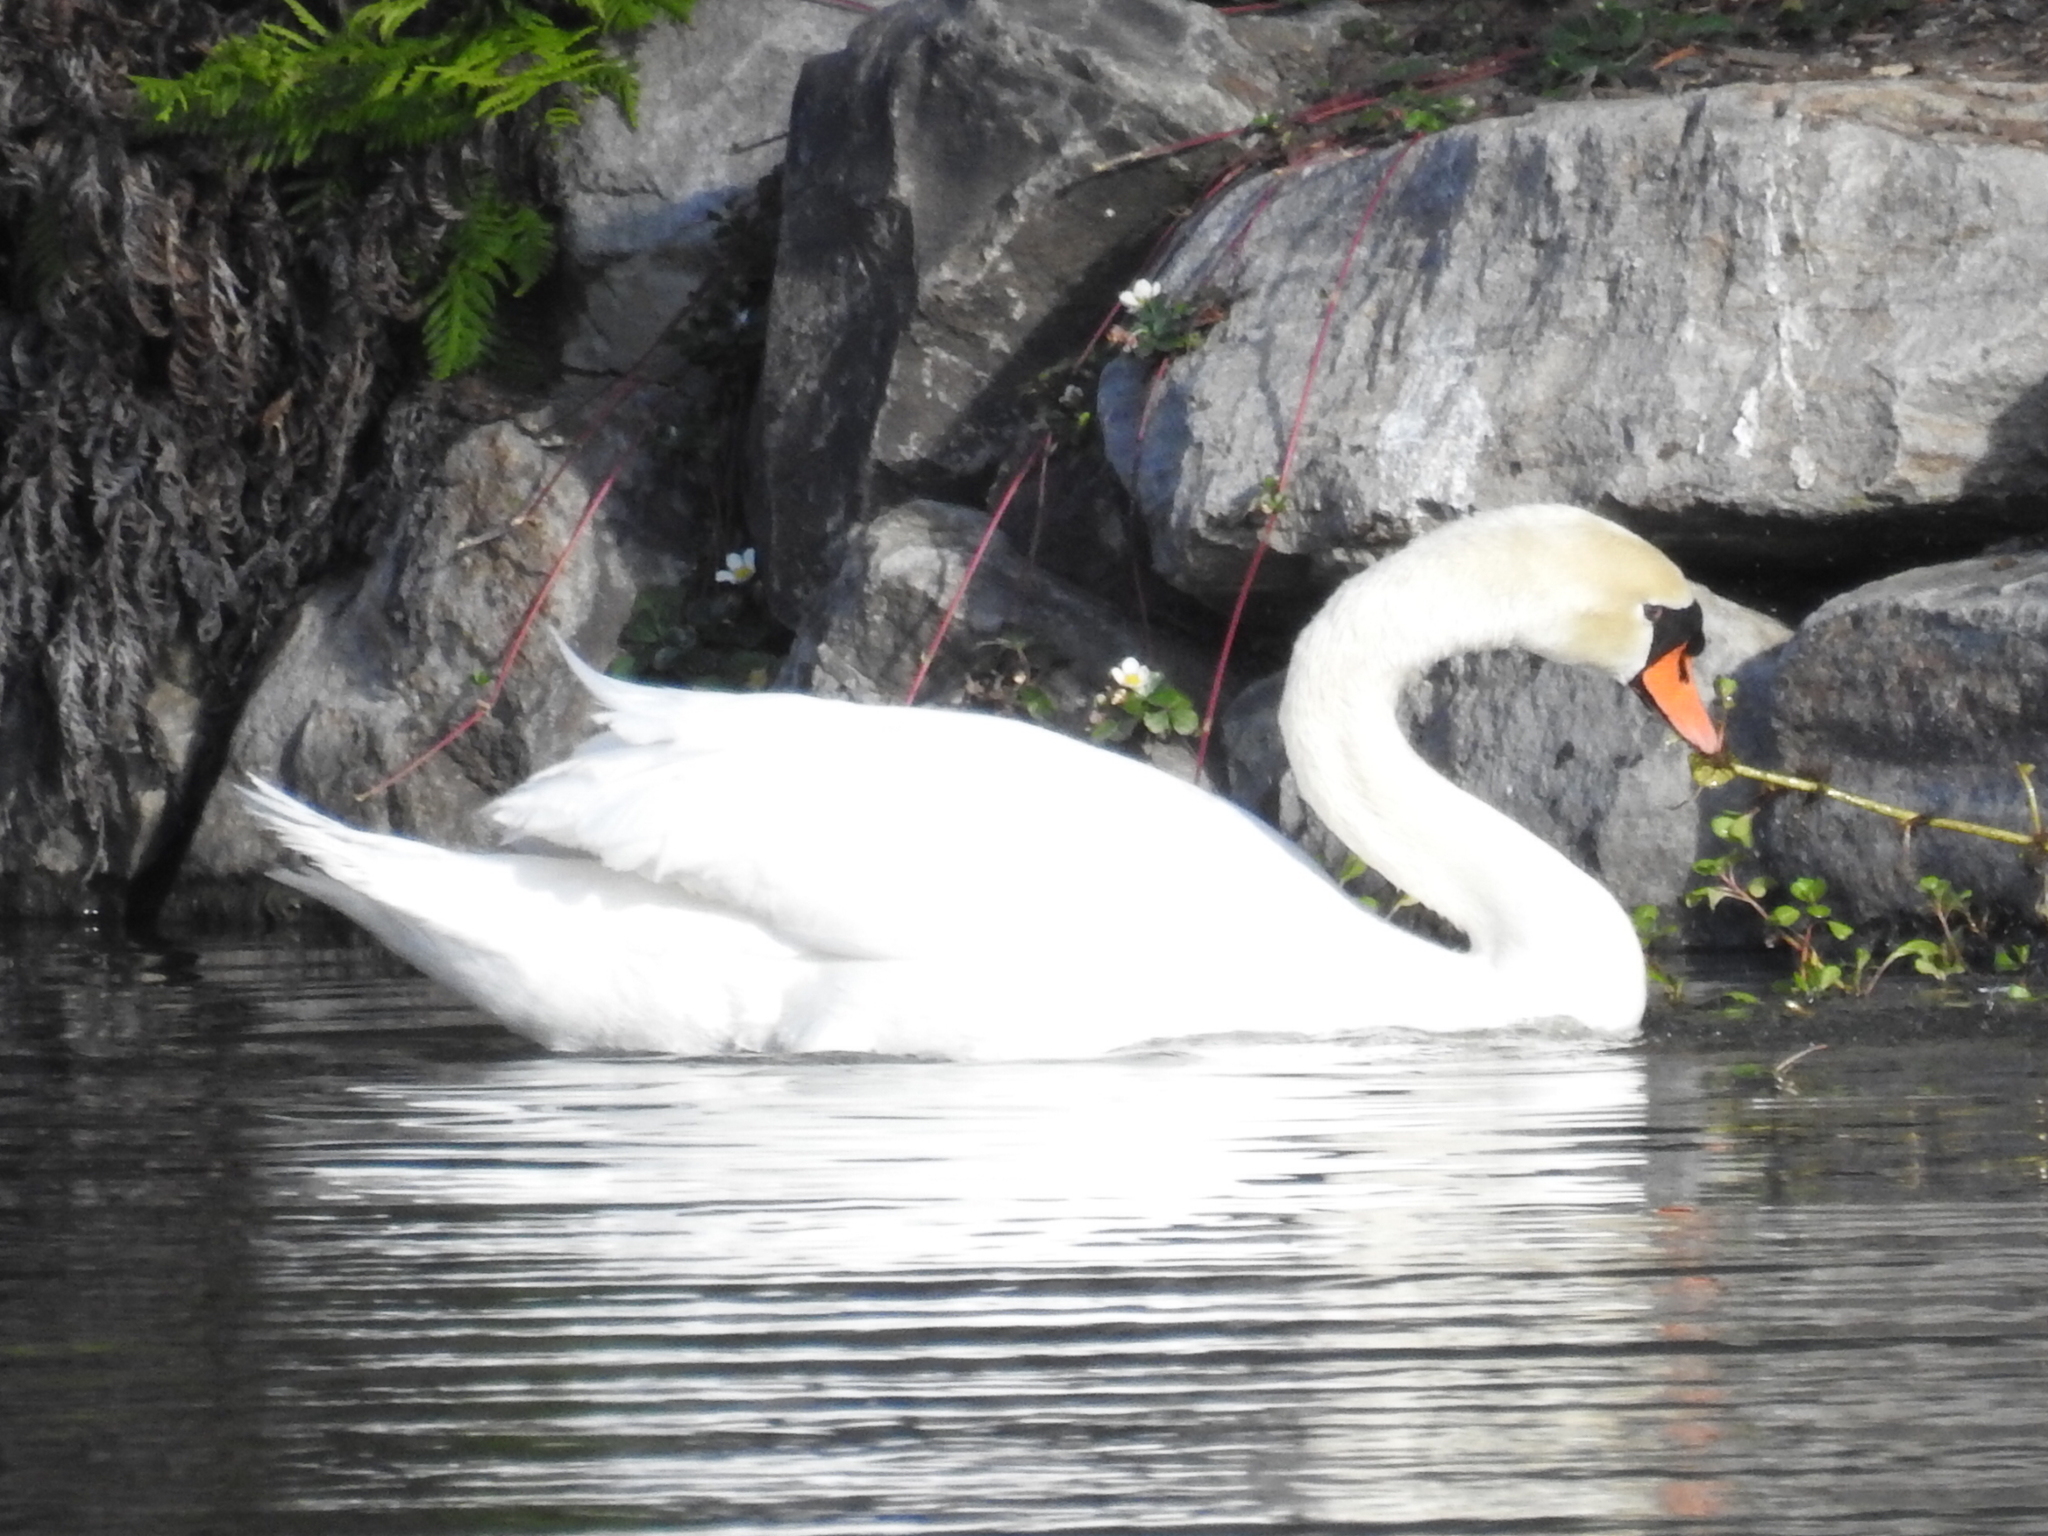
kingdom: Animalia
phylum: Chordata
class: Aves
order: Anseriformes
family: Anatidae
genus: Cygnus
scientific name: Cygnus olor
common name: Mute swan
